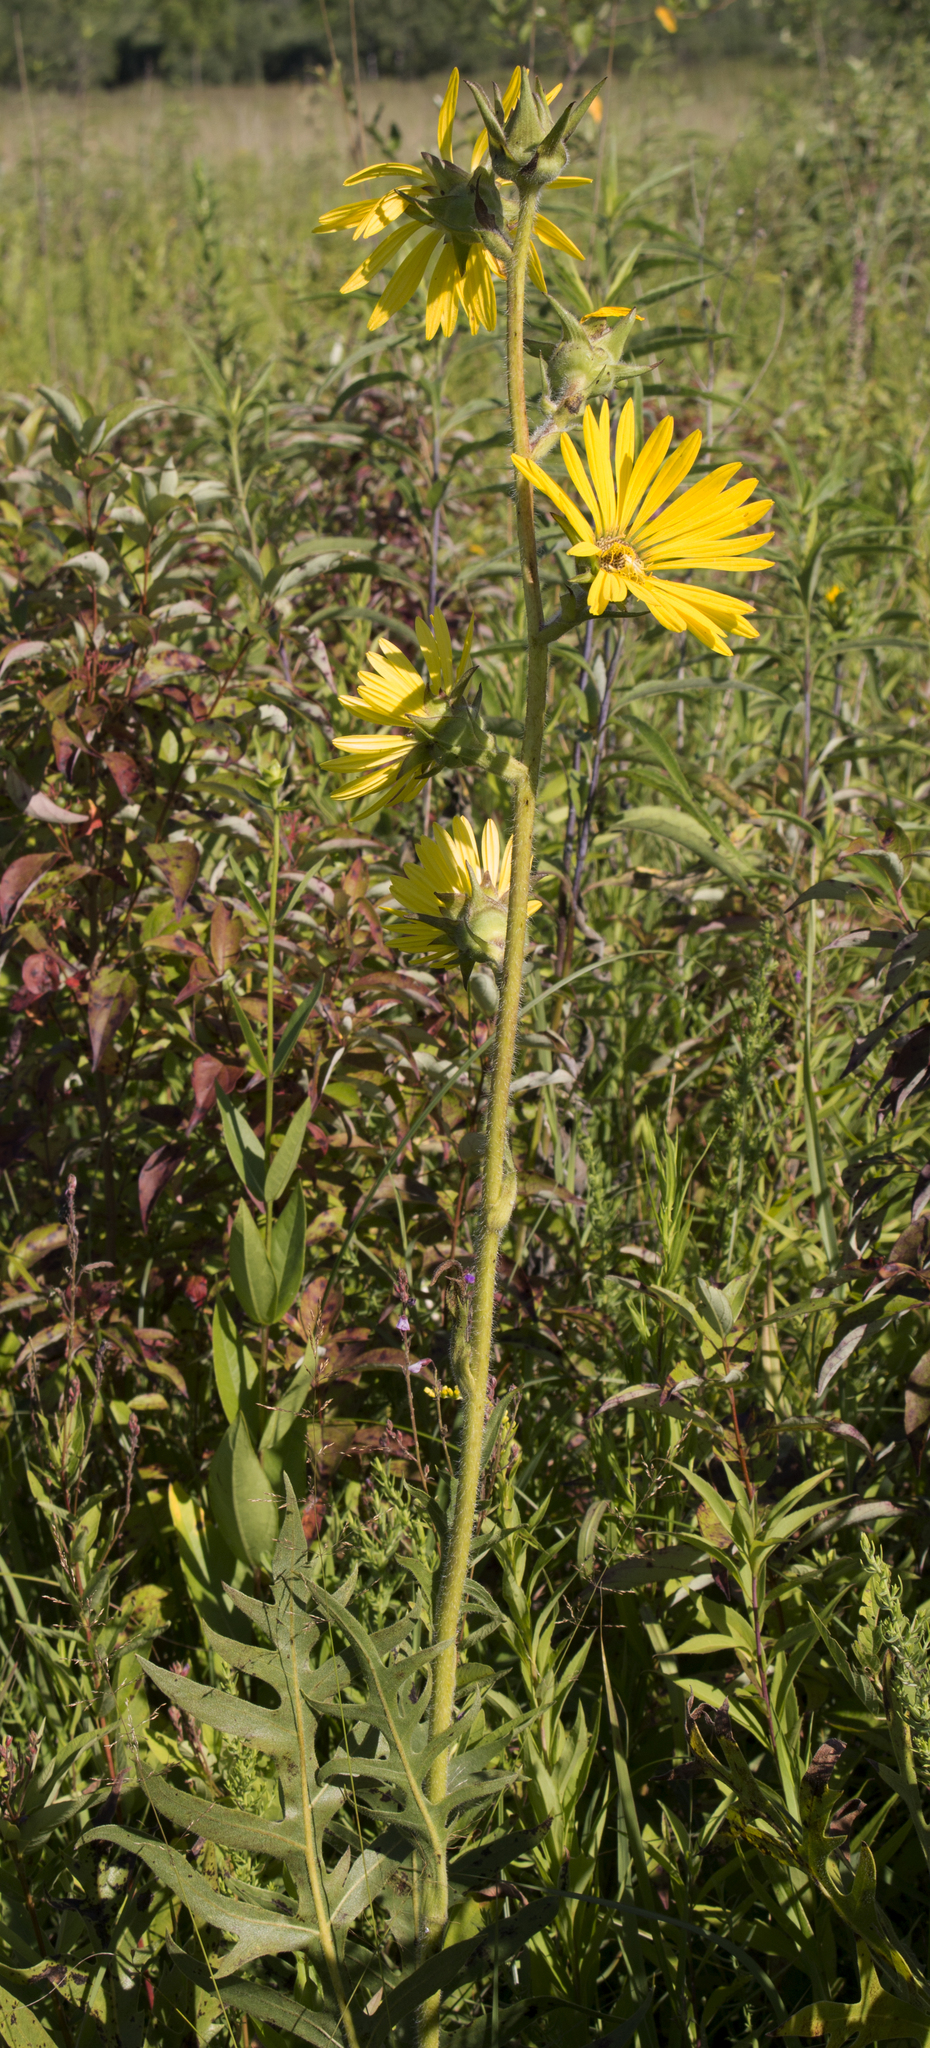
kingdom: Plantae
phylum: Tracheophyta
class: Magnoliopsida
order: Asterales
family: Asteraceae
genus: Silphium
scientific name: Silphium laciniatum
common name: Polarplant
